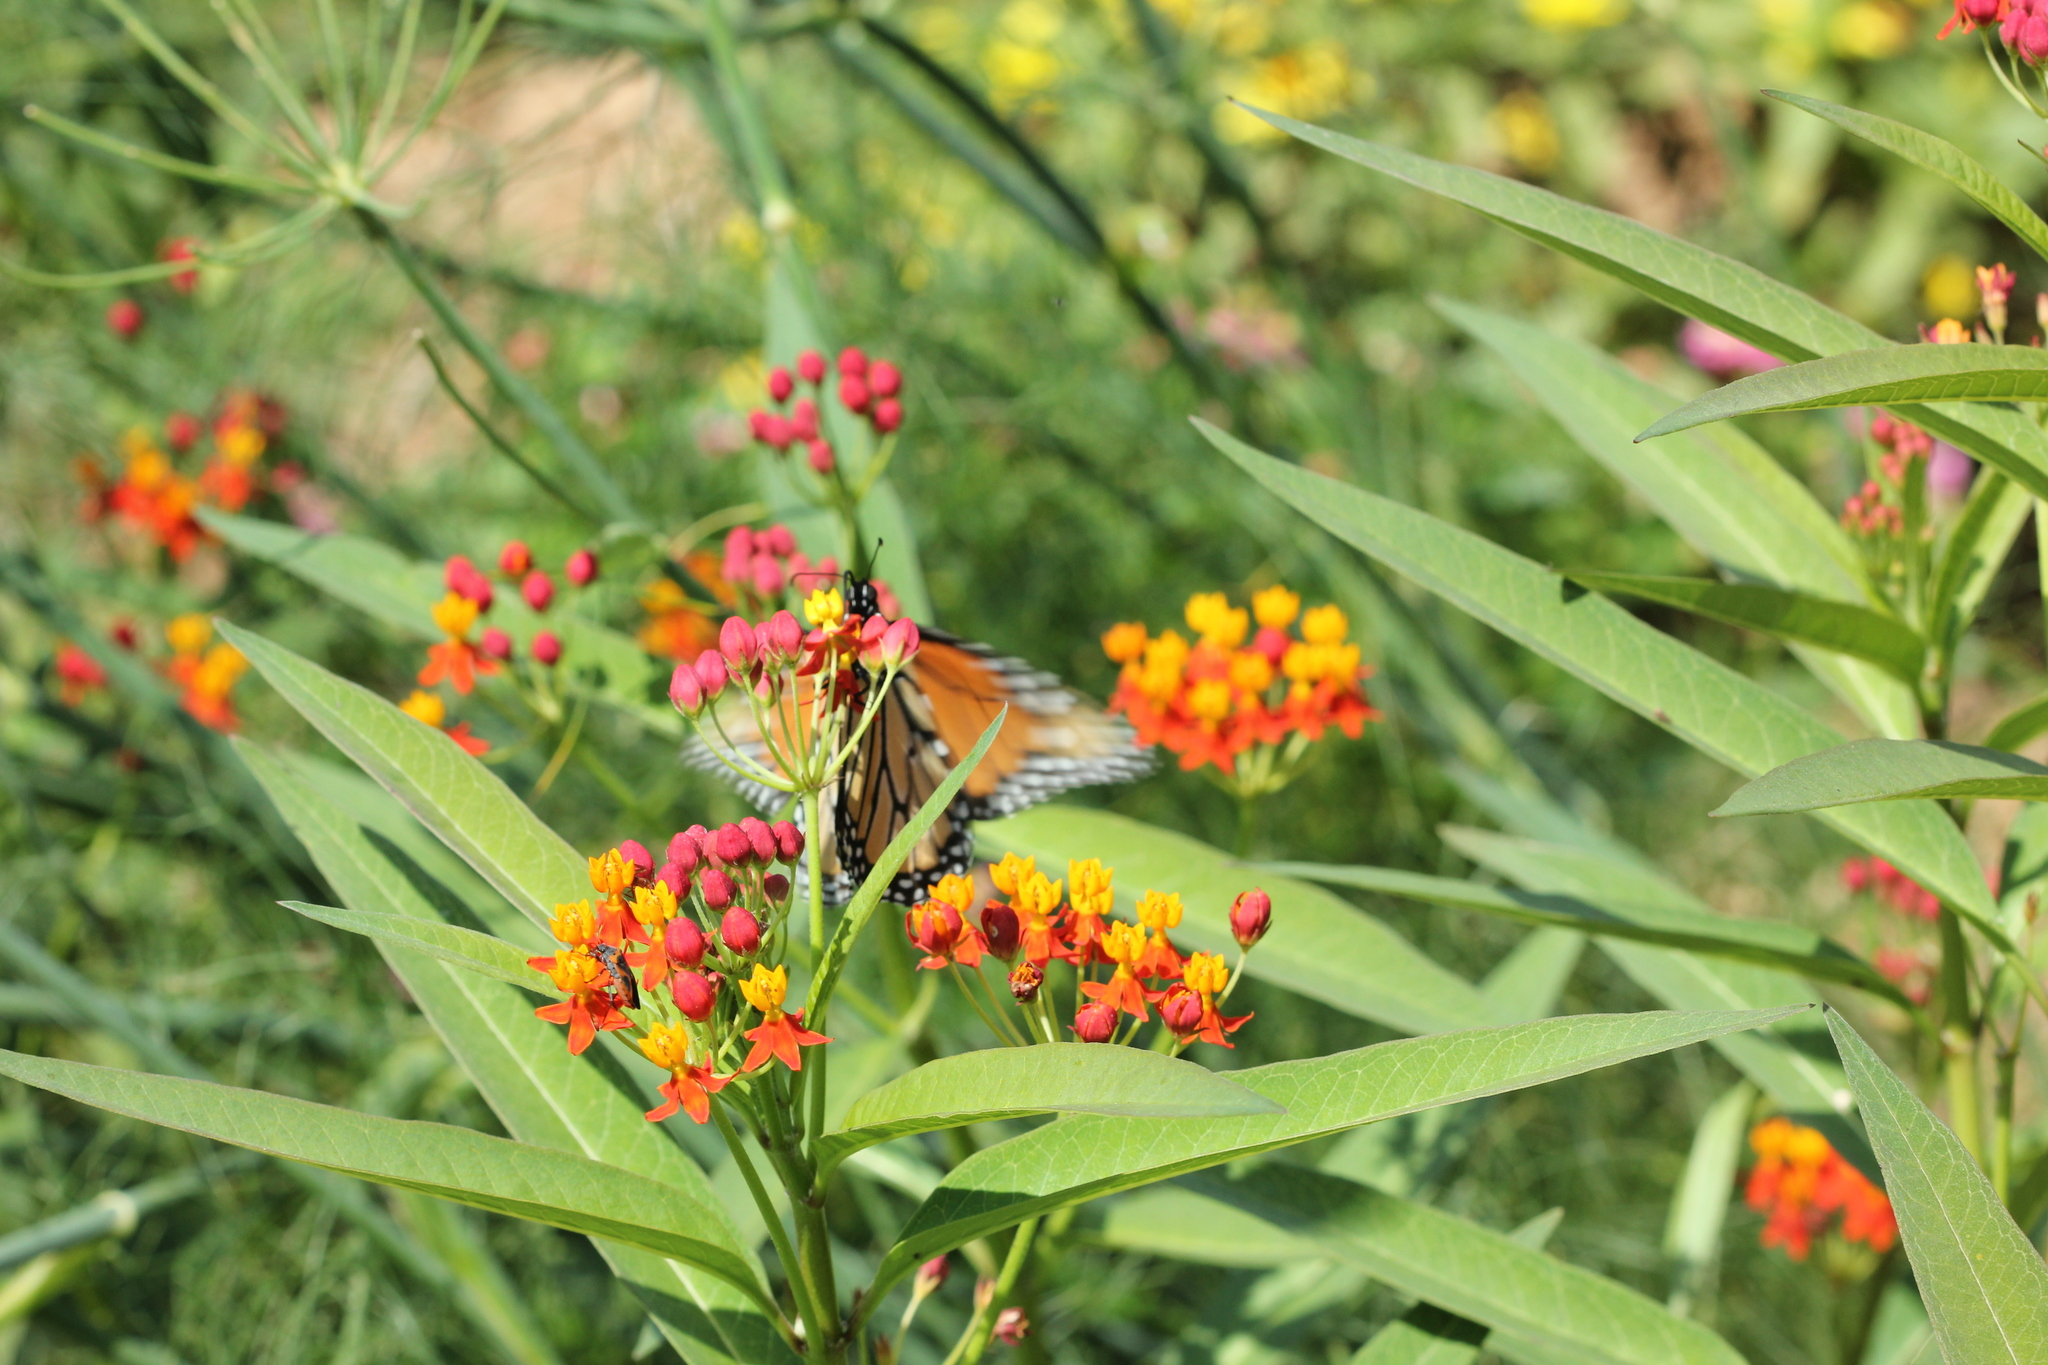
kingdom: Animalia
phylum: Arthropoda
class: Insecta
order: Lepidoptera
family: Nymphalidae
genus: Danaus
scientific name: Danaus plexippus
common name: Monarch
